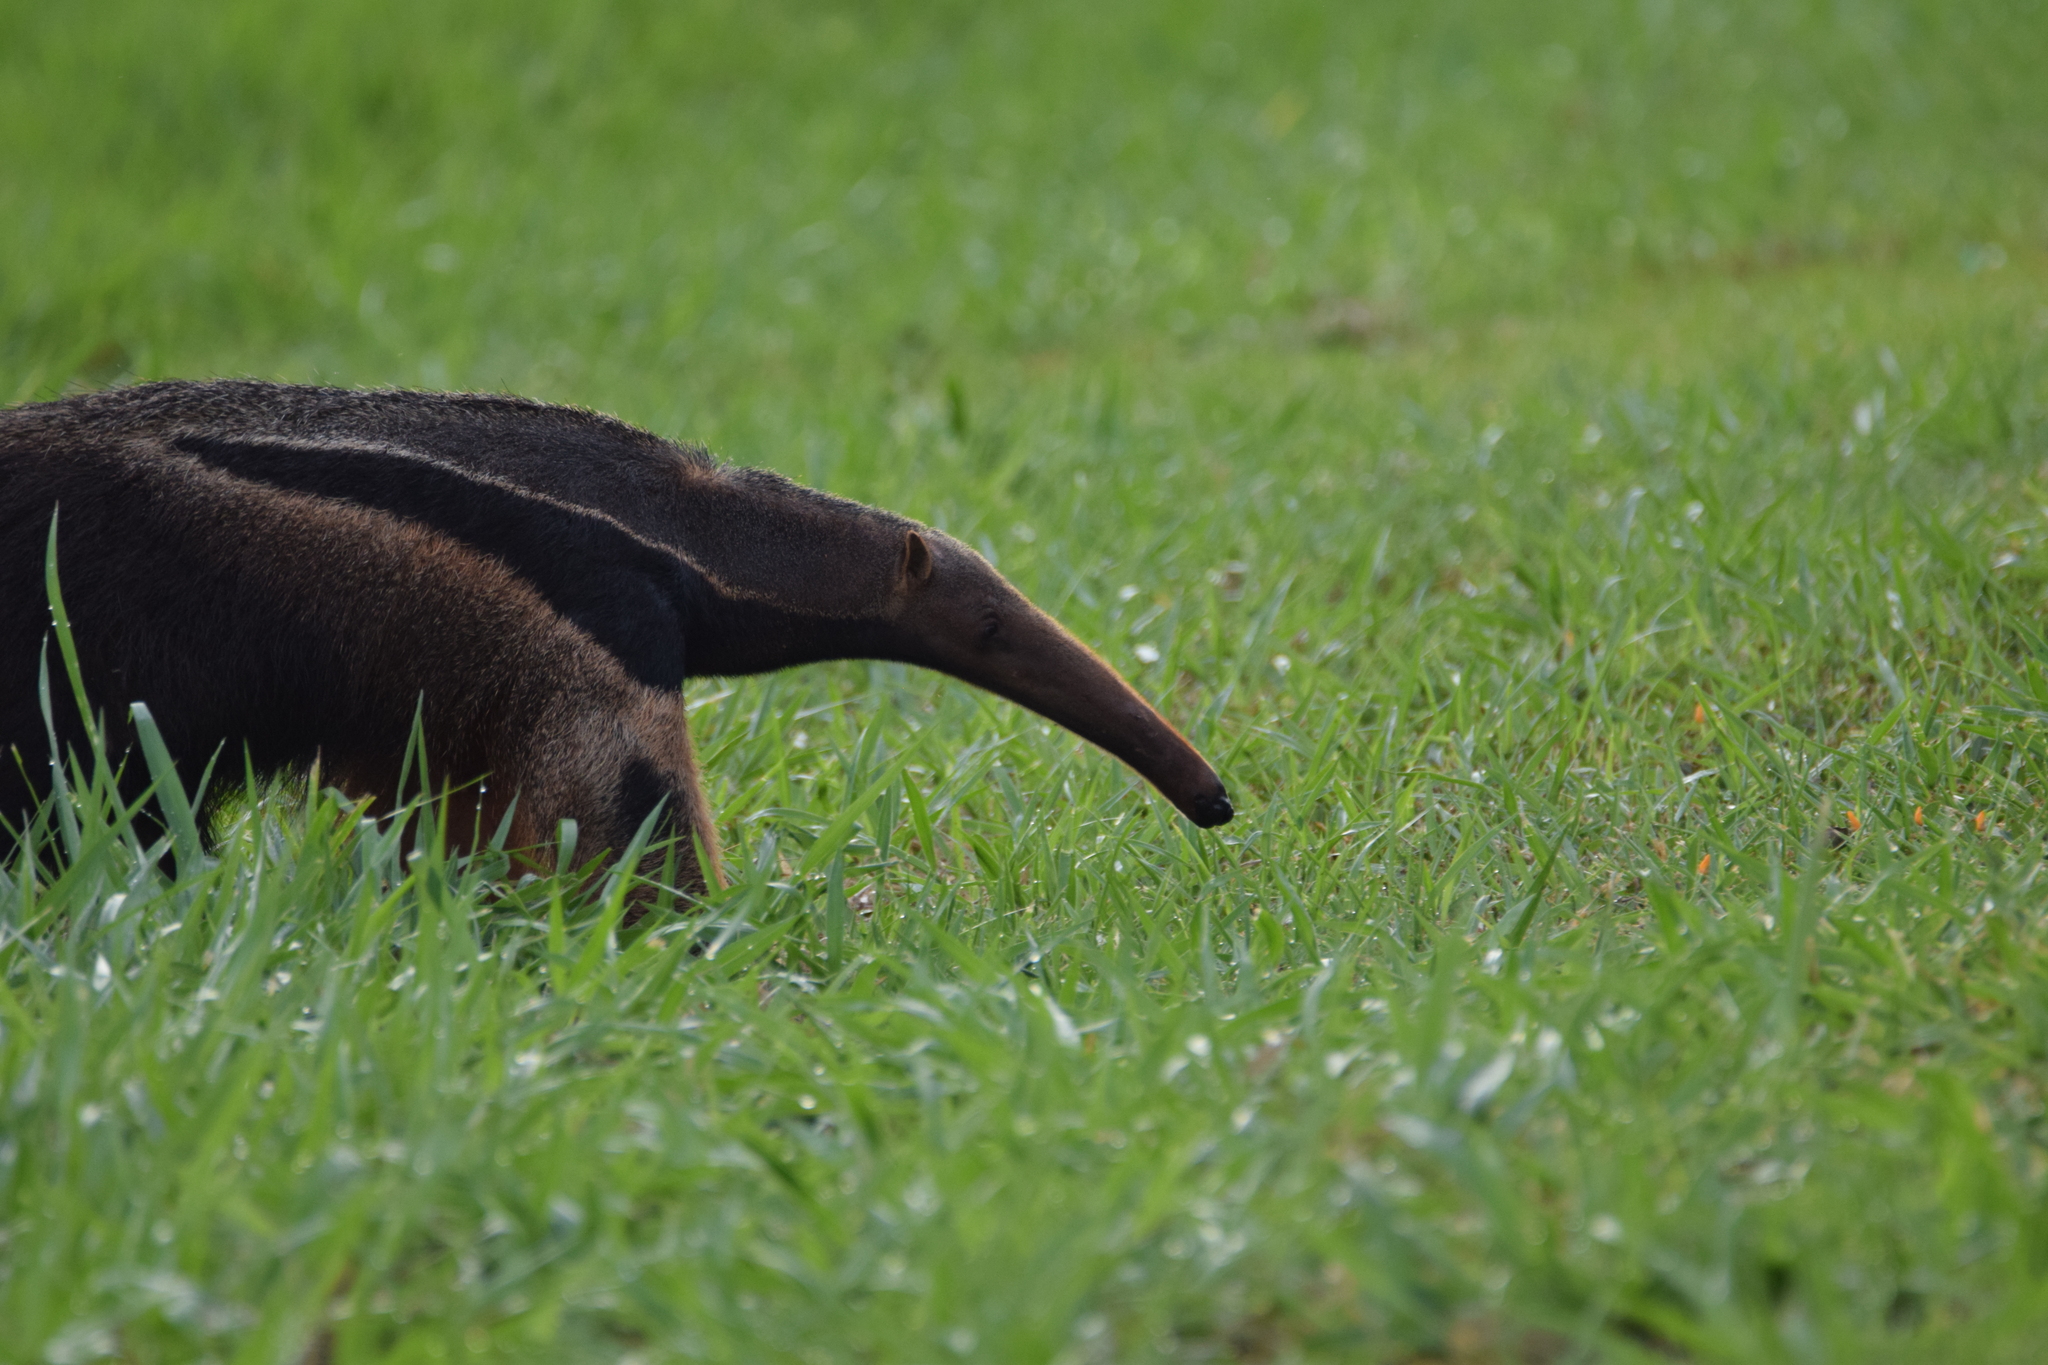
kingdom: Animalia
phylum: Chordata
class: Mammalia
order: Pilosa
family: Myrmecophagidae
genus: Myrmecophaga
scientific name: Myrmecophaga tridactyla
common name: Giant anteater
